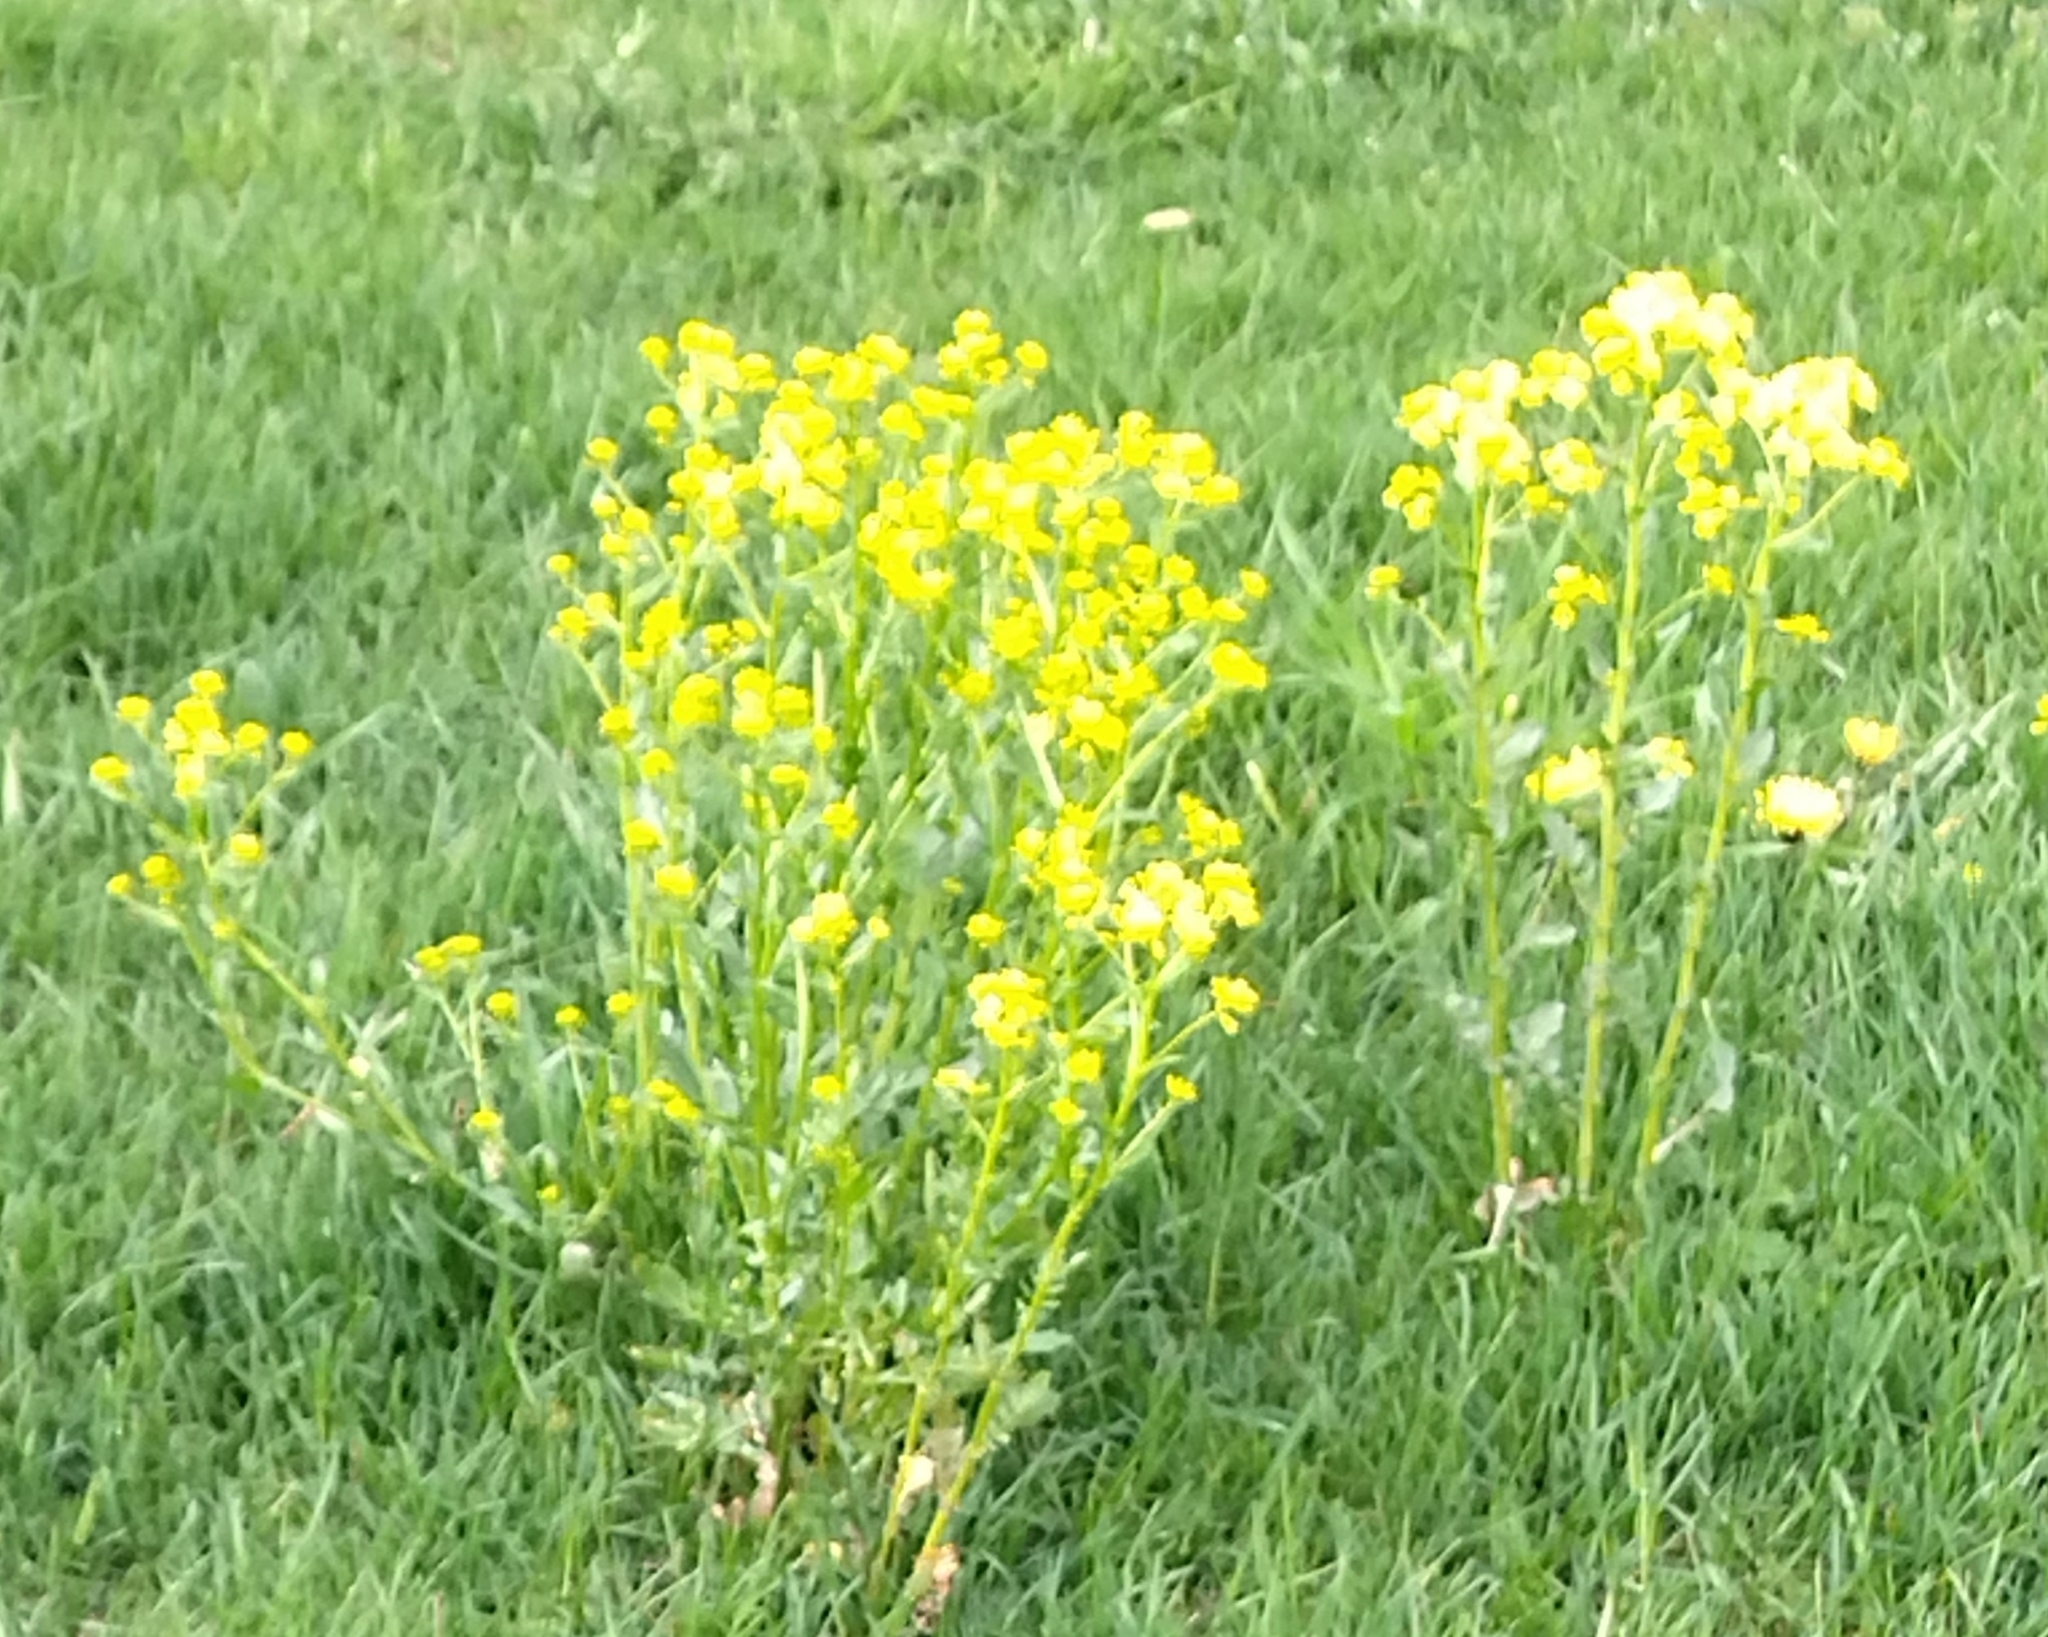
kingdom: Plantae
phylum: Tracheophyta
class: Magnoliopsida
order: Brassicales
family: Brassicaceae
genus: Barbarea
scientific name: Barbarea vulgaris
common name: Cressy-greens
